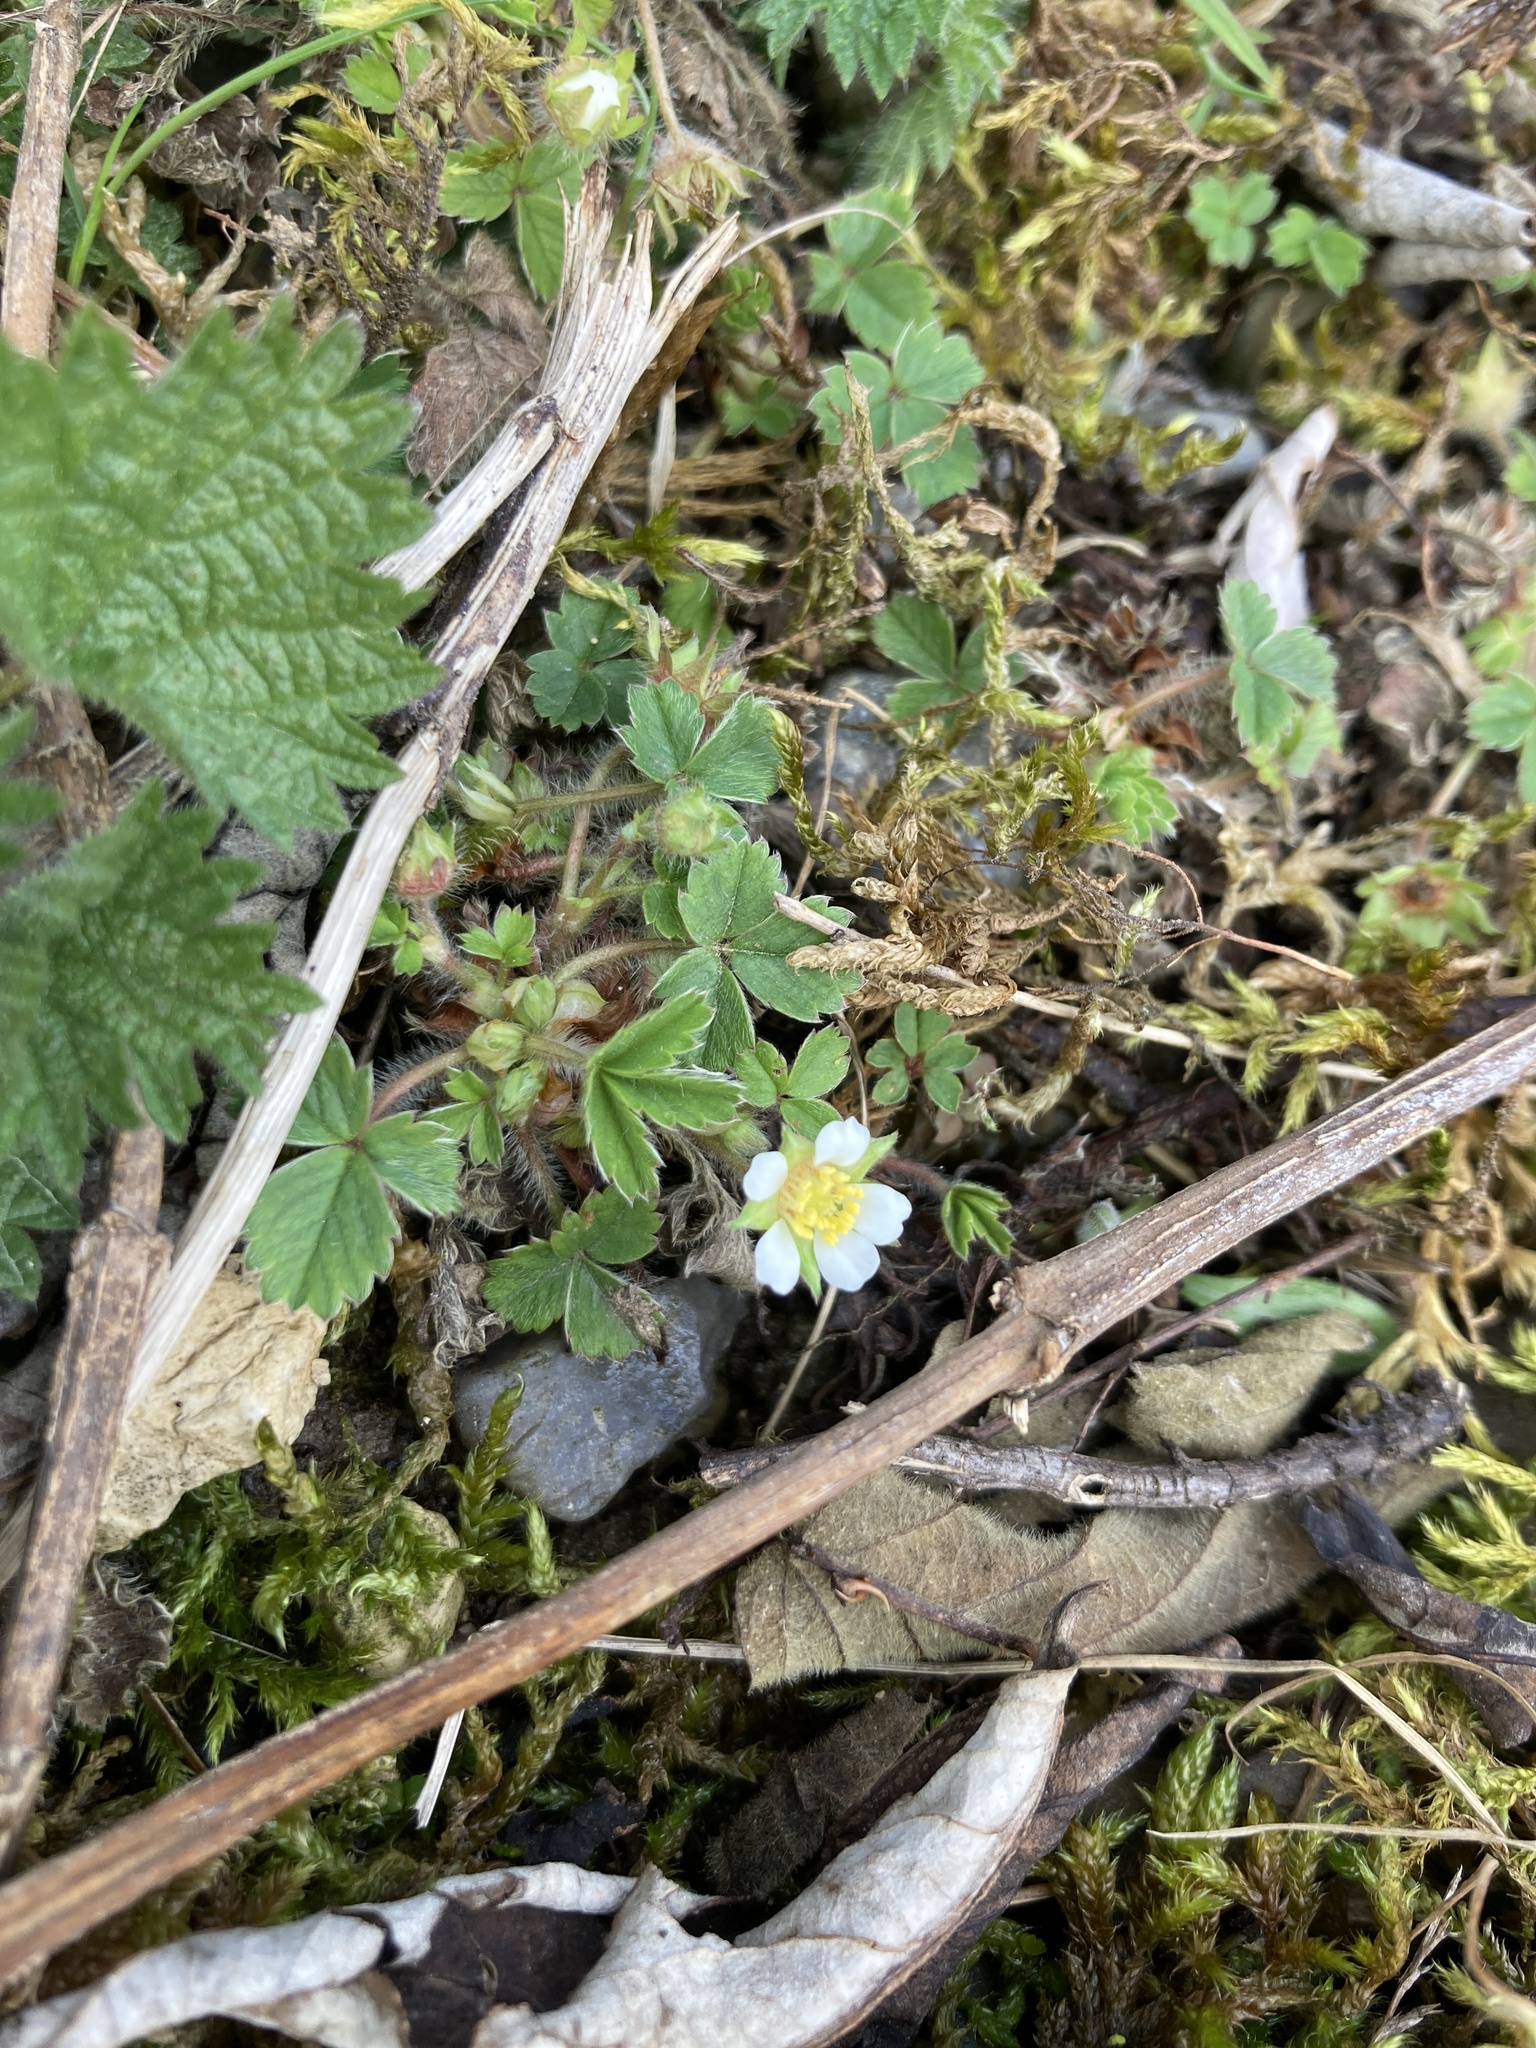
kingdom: Plantae
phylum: Tracheophyta
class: Magnoliopsida
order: Rosales
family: Rosaceae
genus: Potentilla
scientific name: Potentilla sterilis
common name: Barren strawberry
